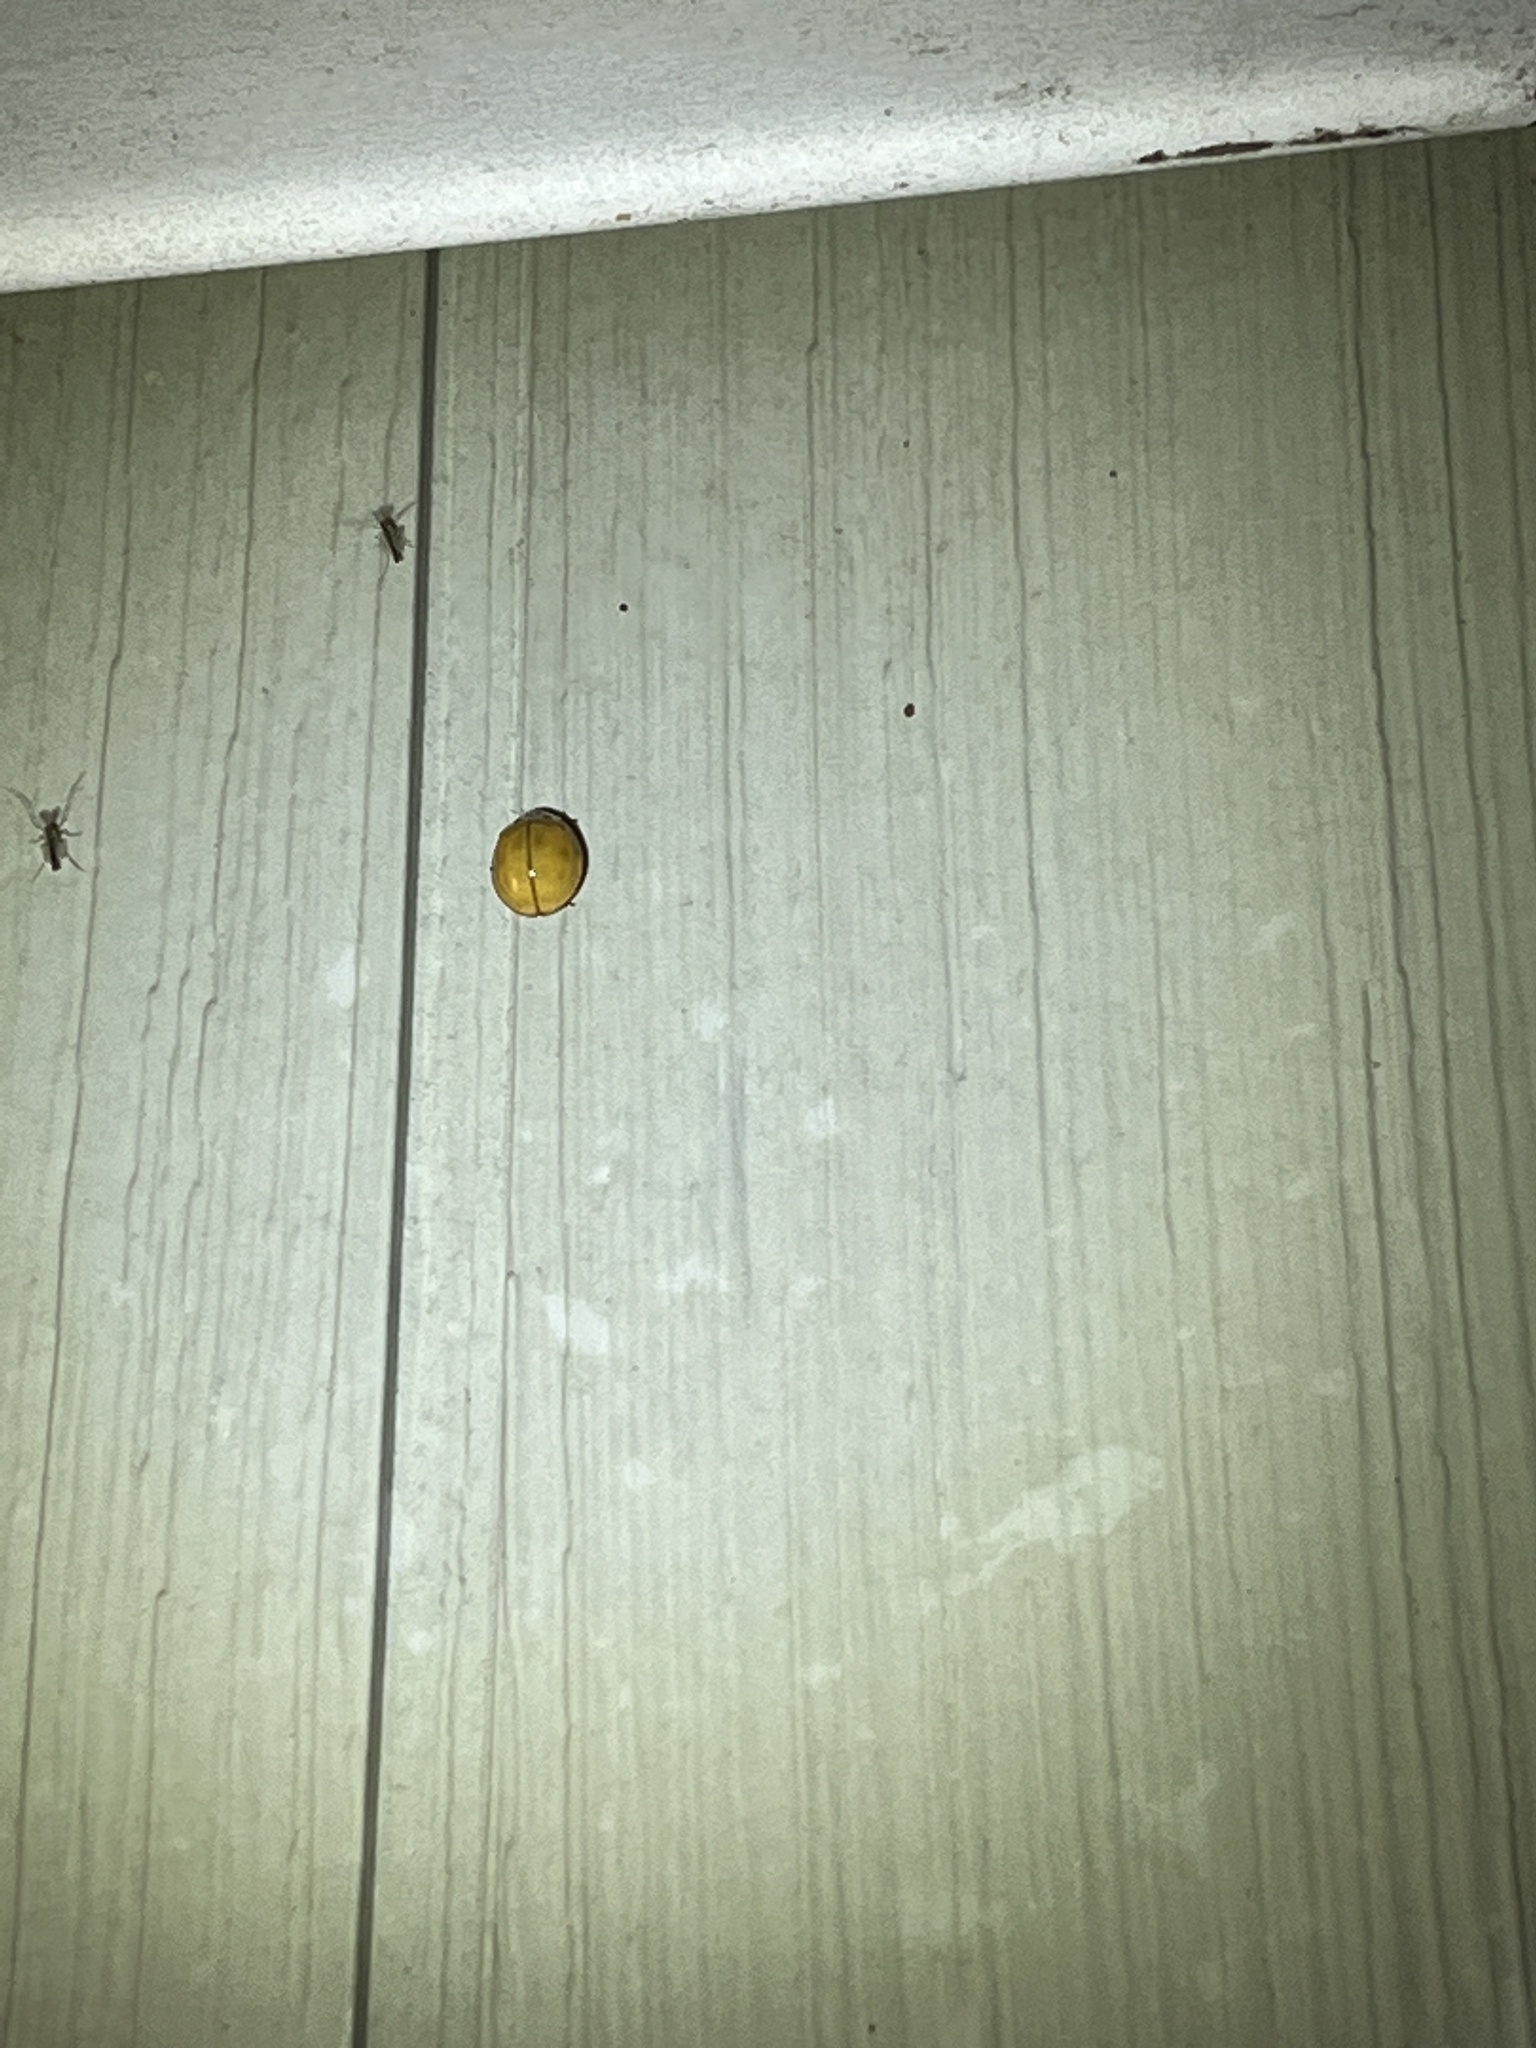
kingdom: Animalia
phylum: Arthropoda
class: Insecta
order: Coleoptera
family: Coccinellidae
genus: Harmonia
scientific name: Harmonia axyridis
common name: Harlequin ladybird
